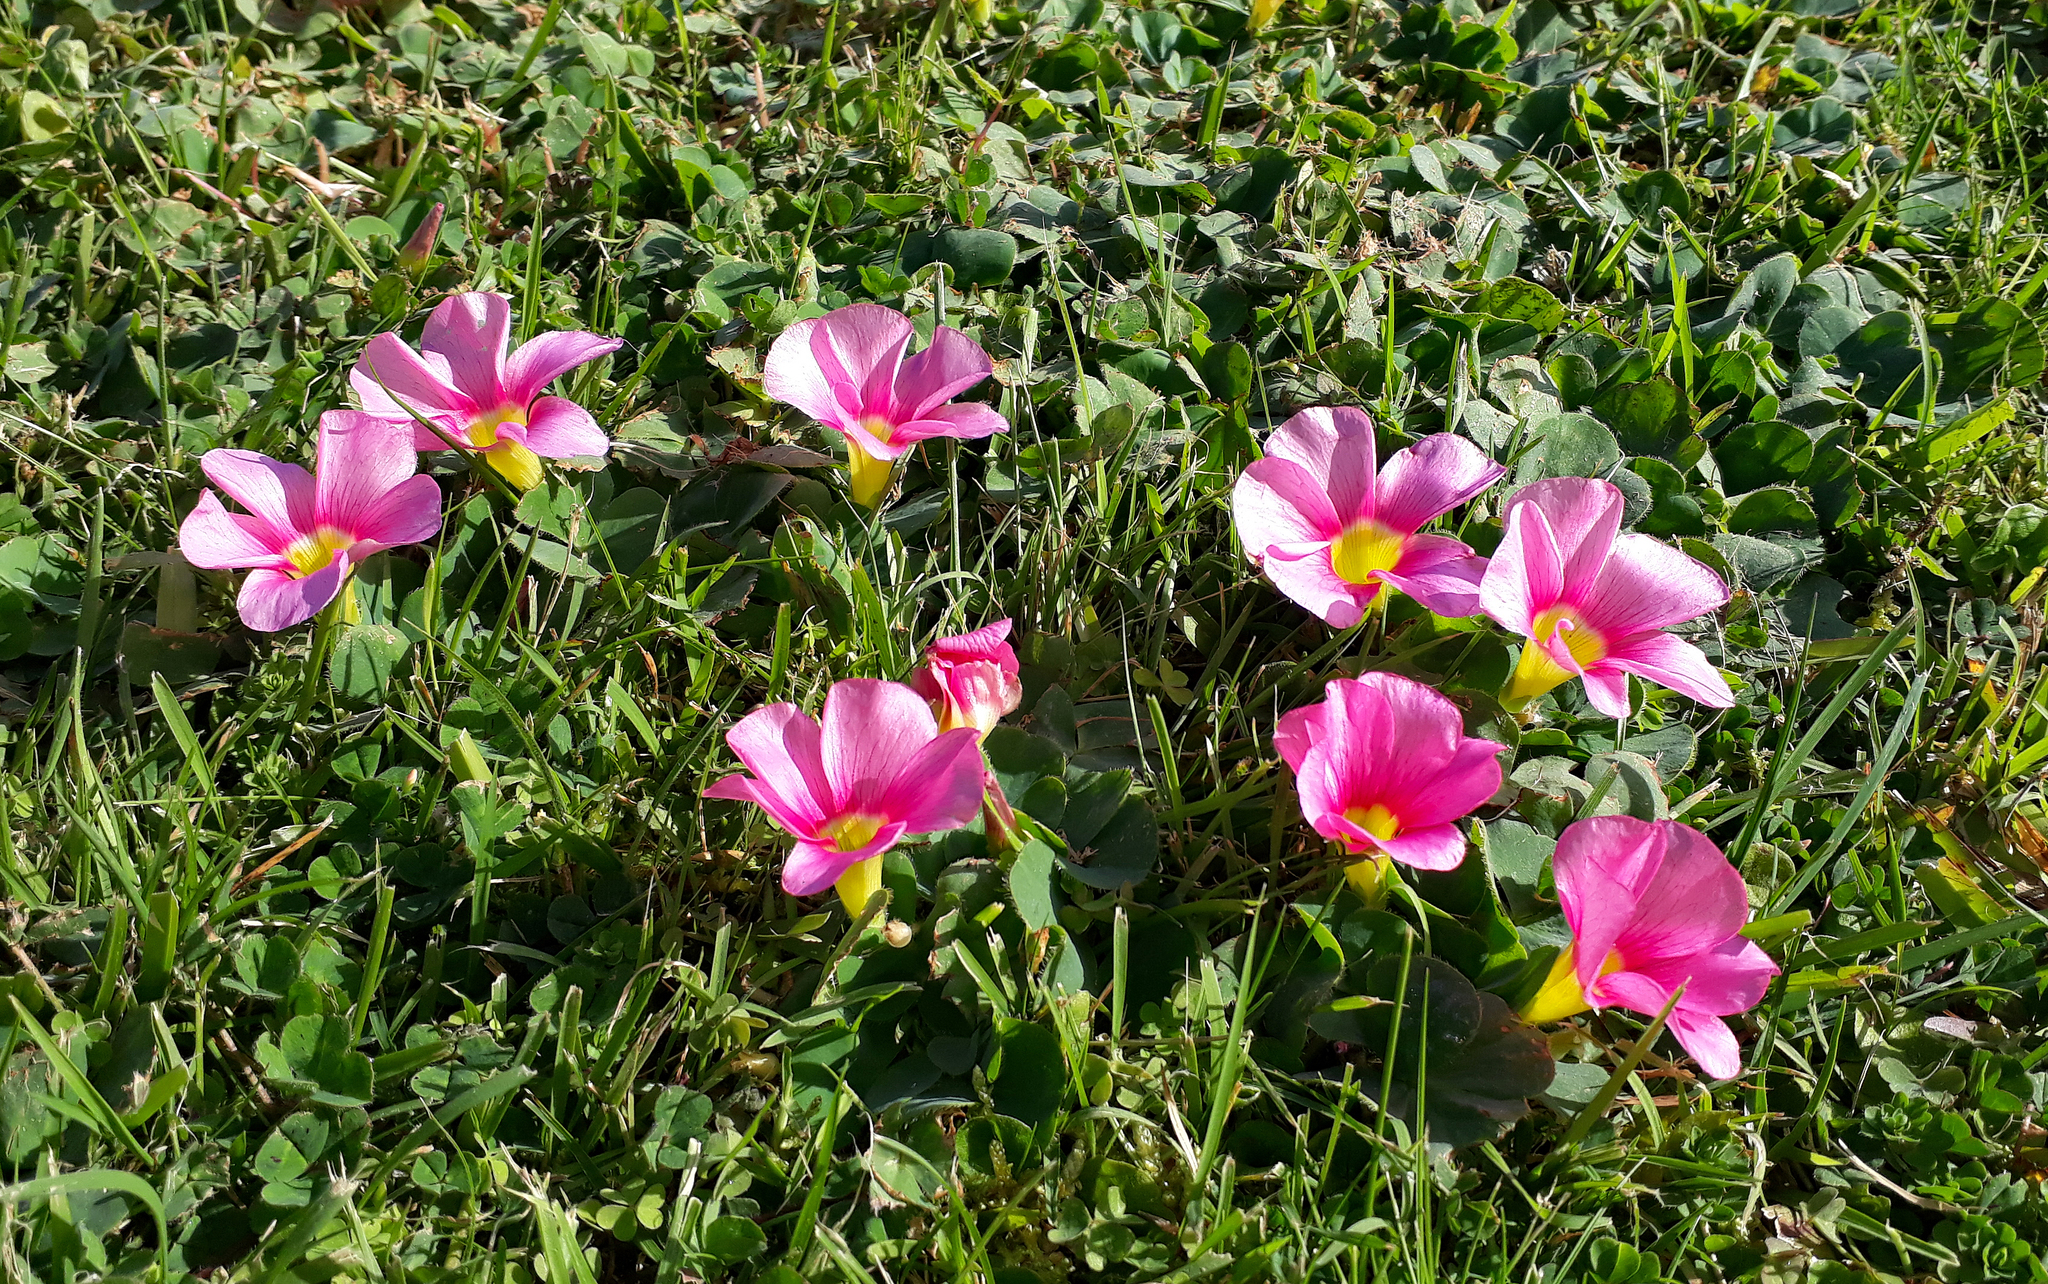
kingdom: Plantae
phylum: Tracheophyta
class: Magnoliopsida
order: Oxalidales
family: Oxalidaceae
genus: Oxalis
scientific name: Oxalis purpurea
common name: Purple woodsorrel
